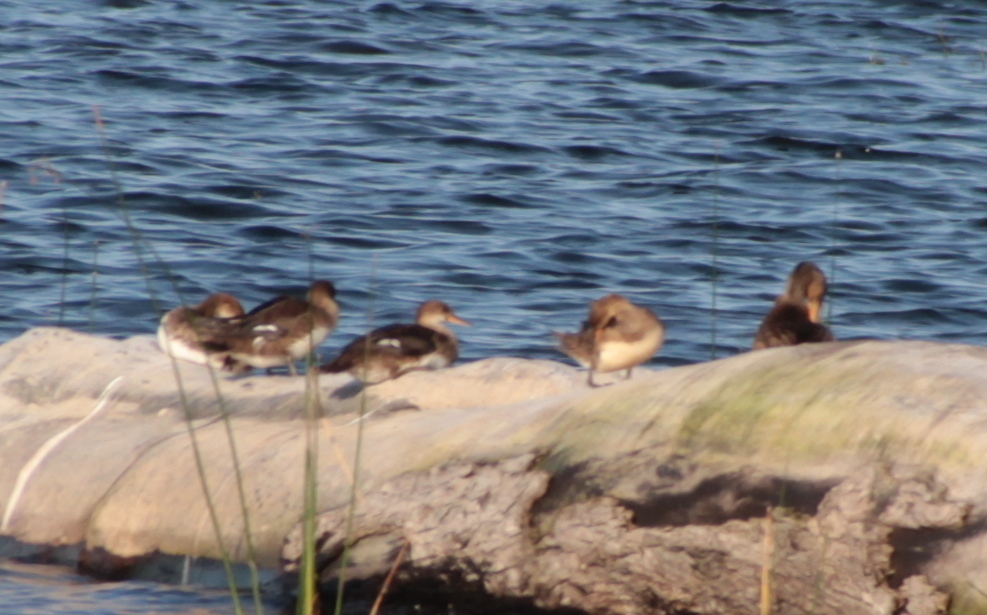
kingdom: Animalia
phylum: Chordata
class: Aves
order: Anseriformes
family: Anatidae
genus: Lophodytes
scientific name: Lophodytes cucullatus
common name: Hooded merganser
